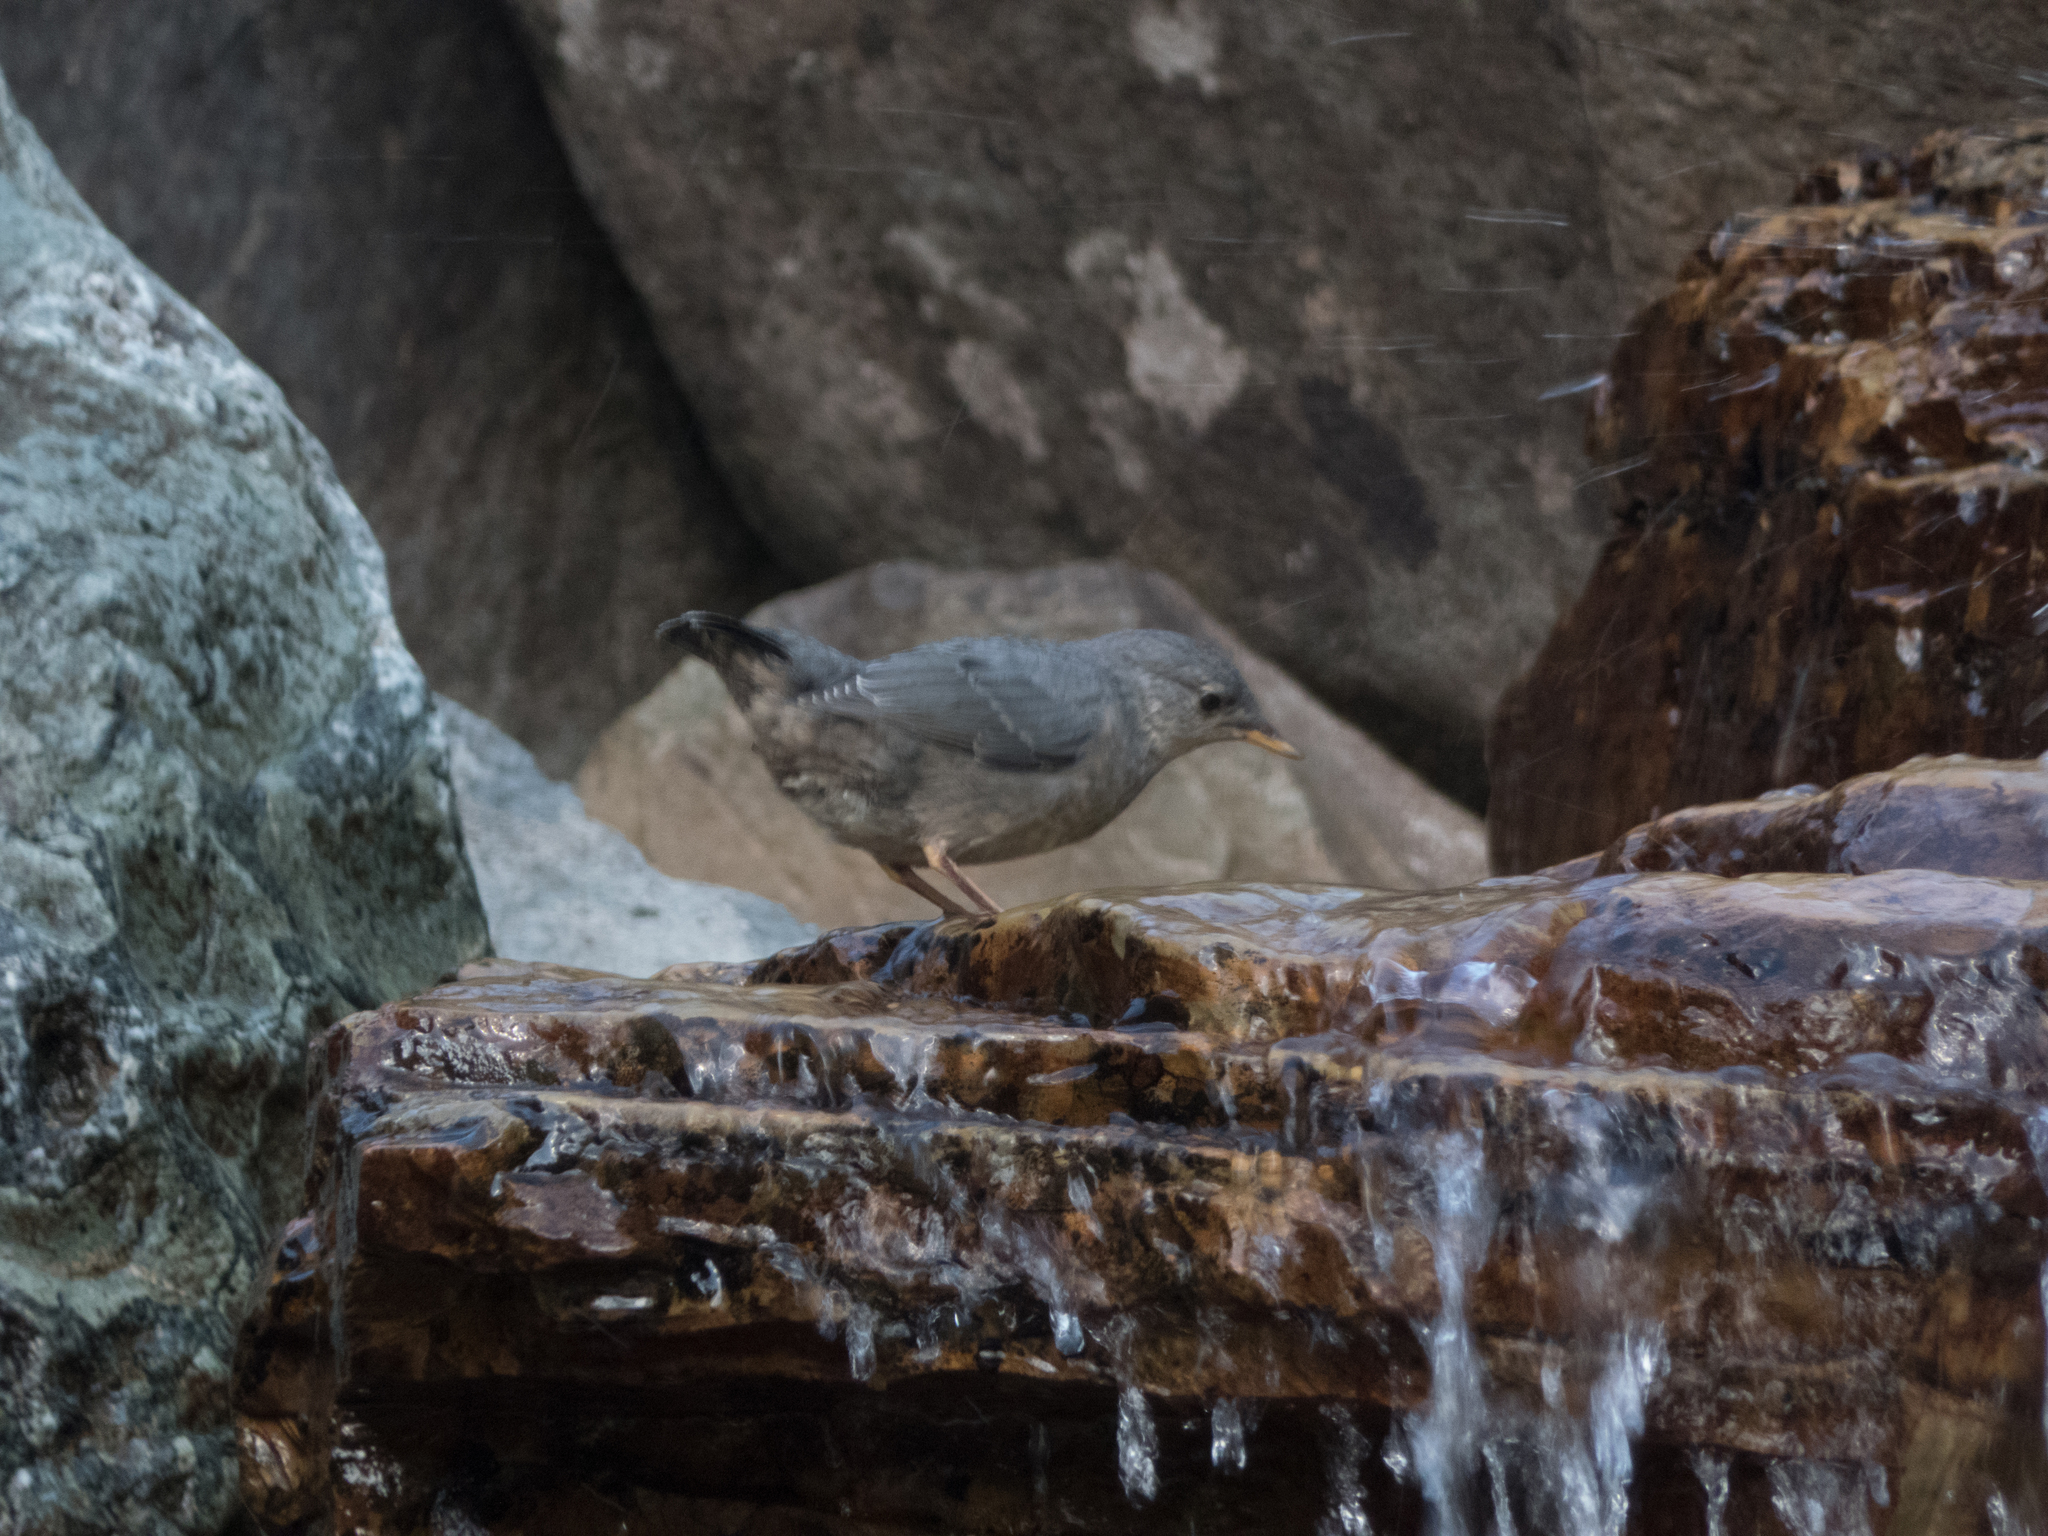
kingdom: Animalia
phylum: Chordata
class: Aves
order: Passeriformes
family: Cinclidae
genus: Cinclus
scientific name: Cinclus mexicanus
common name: American dipper
